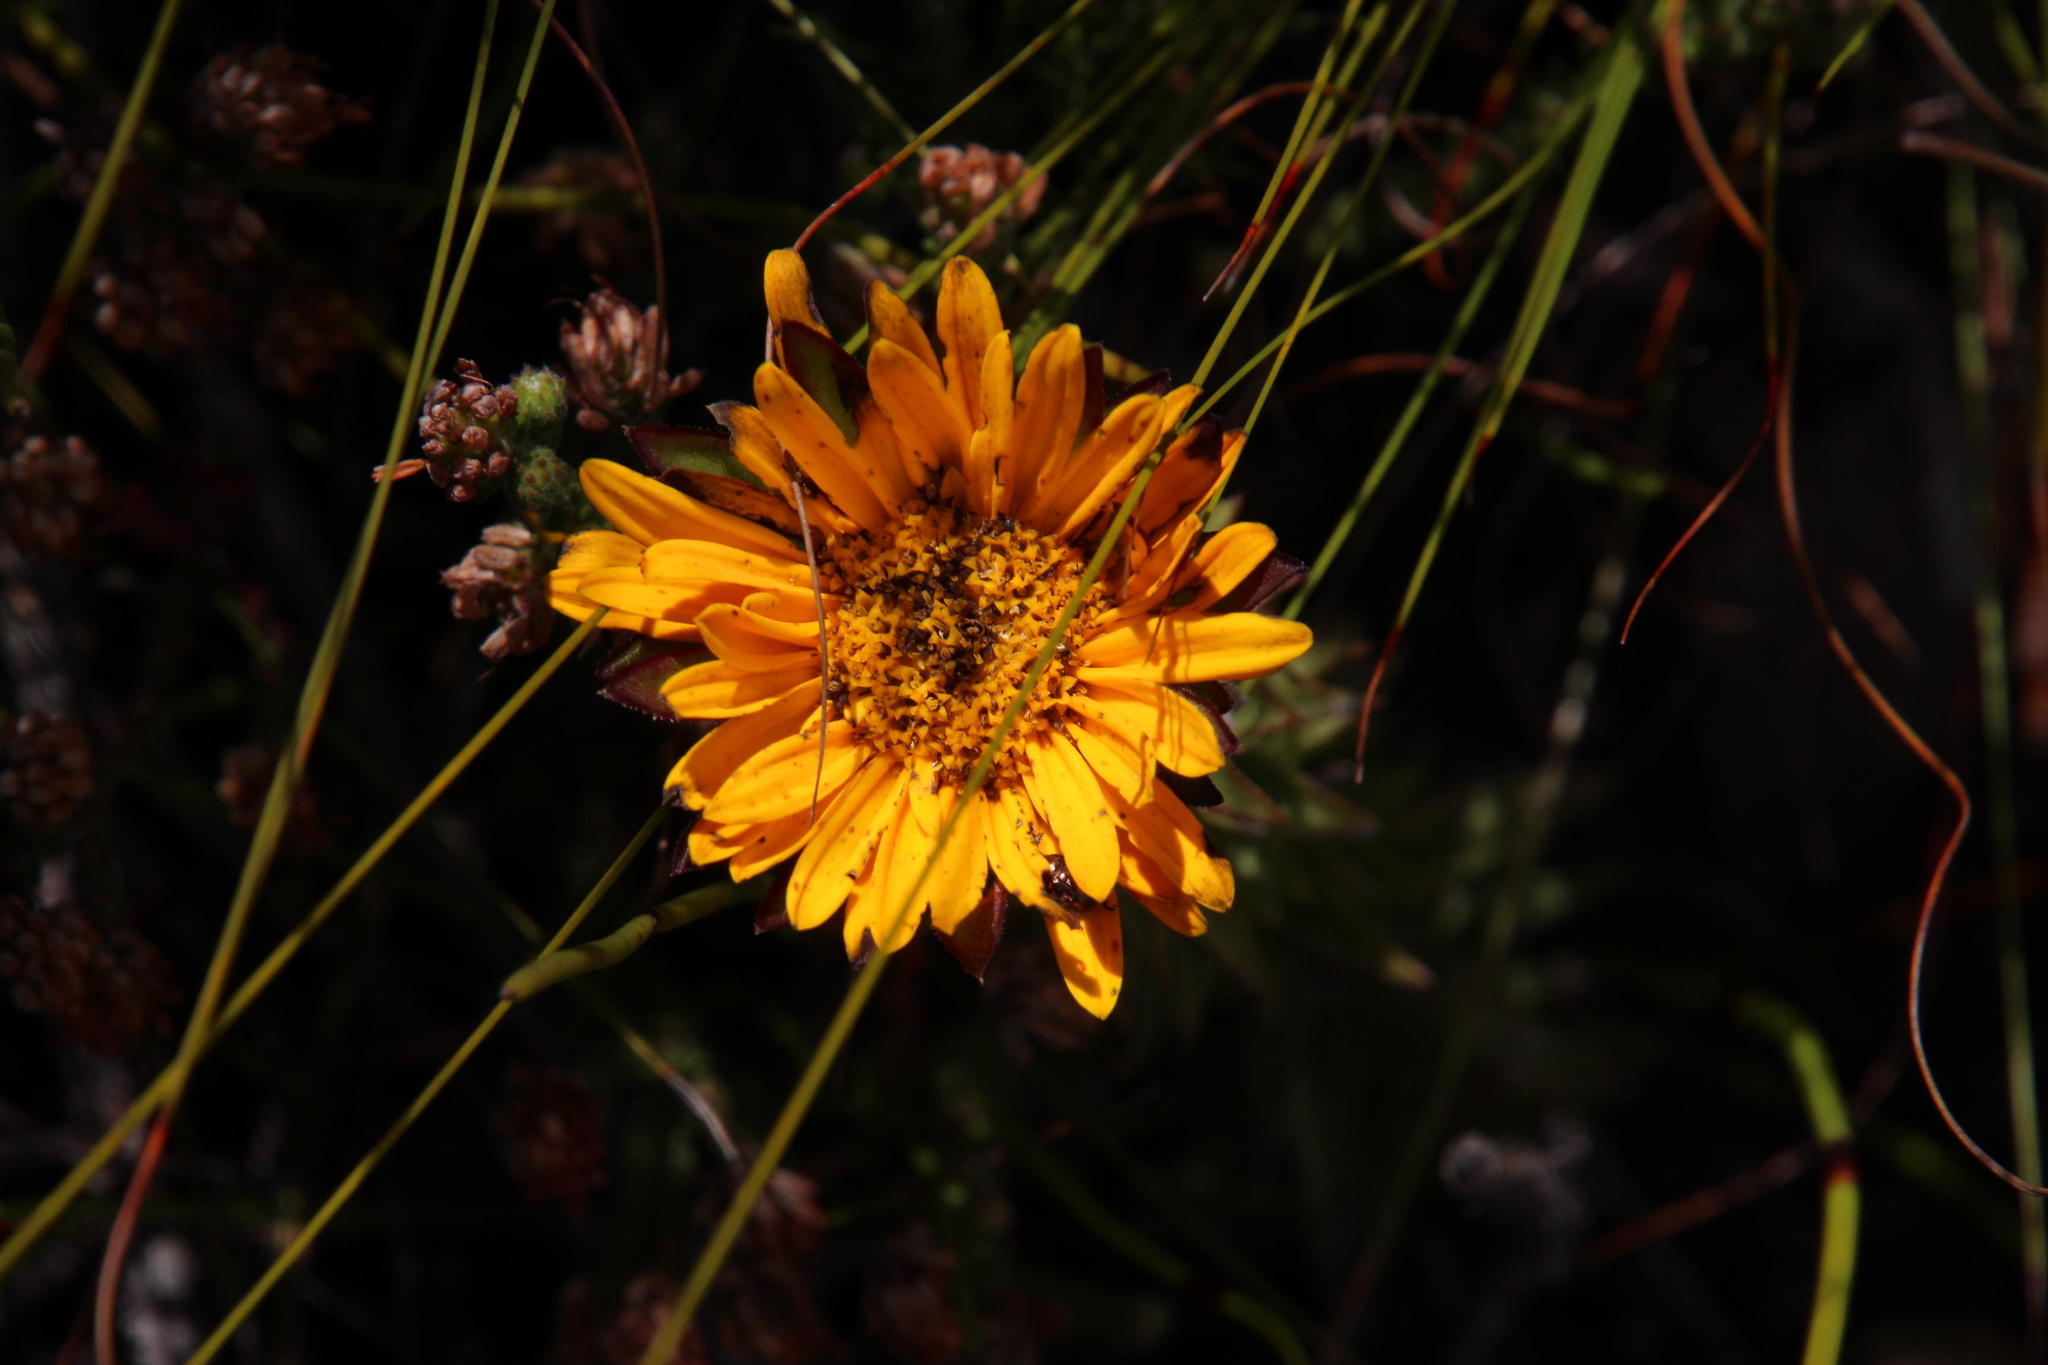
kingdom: Plantae
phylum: Tracheophyta
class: Magnoliopsida
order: Asterales
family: Asteraceae
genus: Oedera
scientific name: Oedera imbricata
